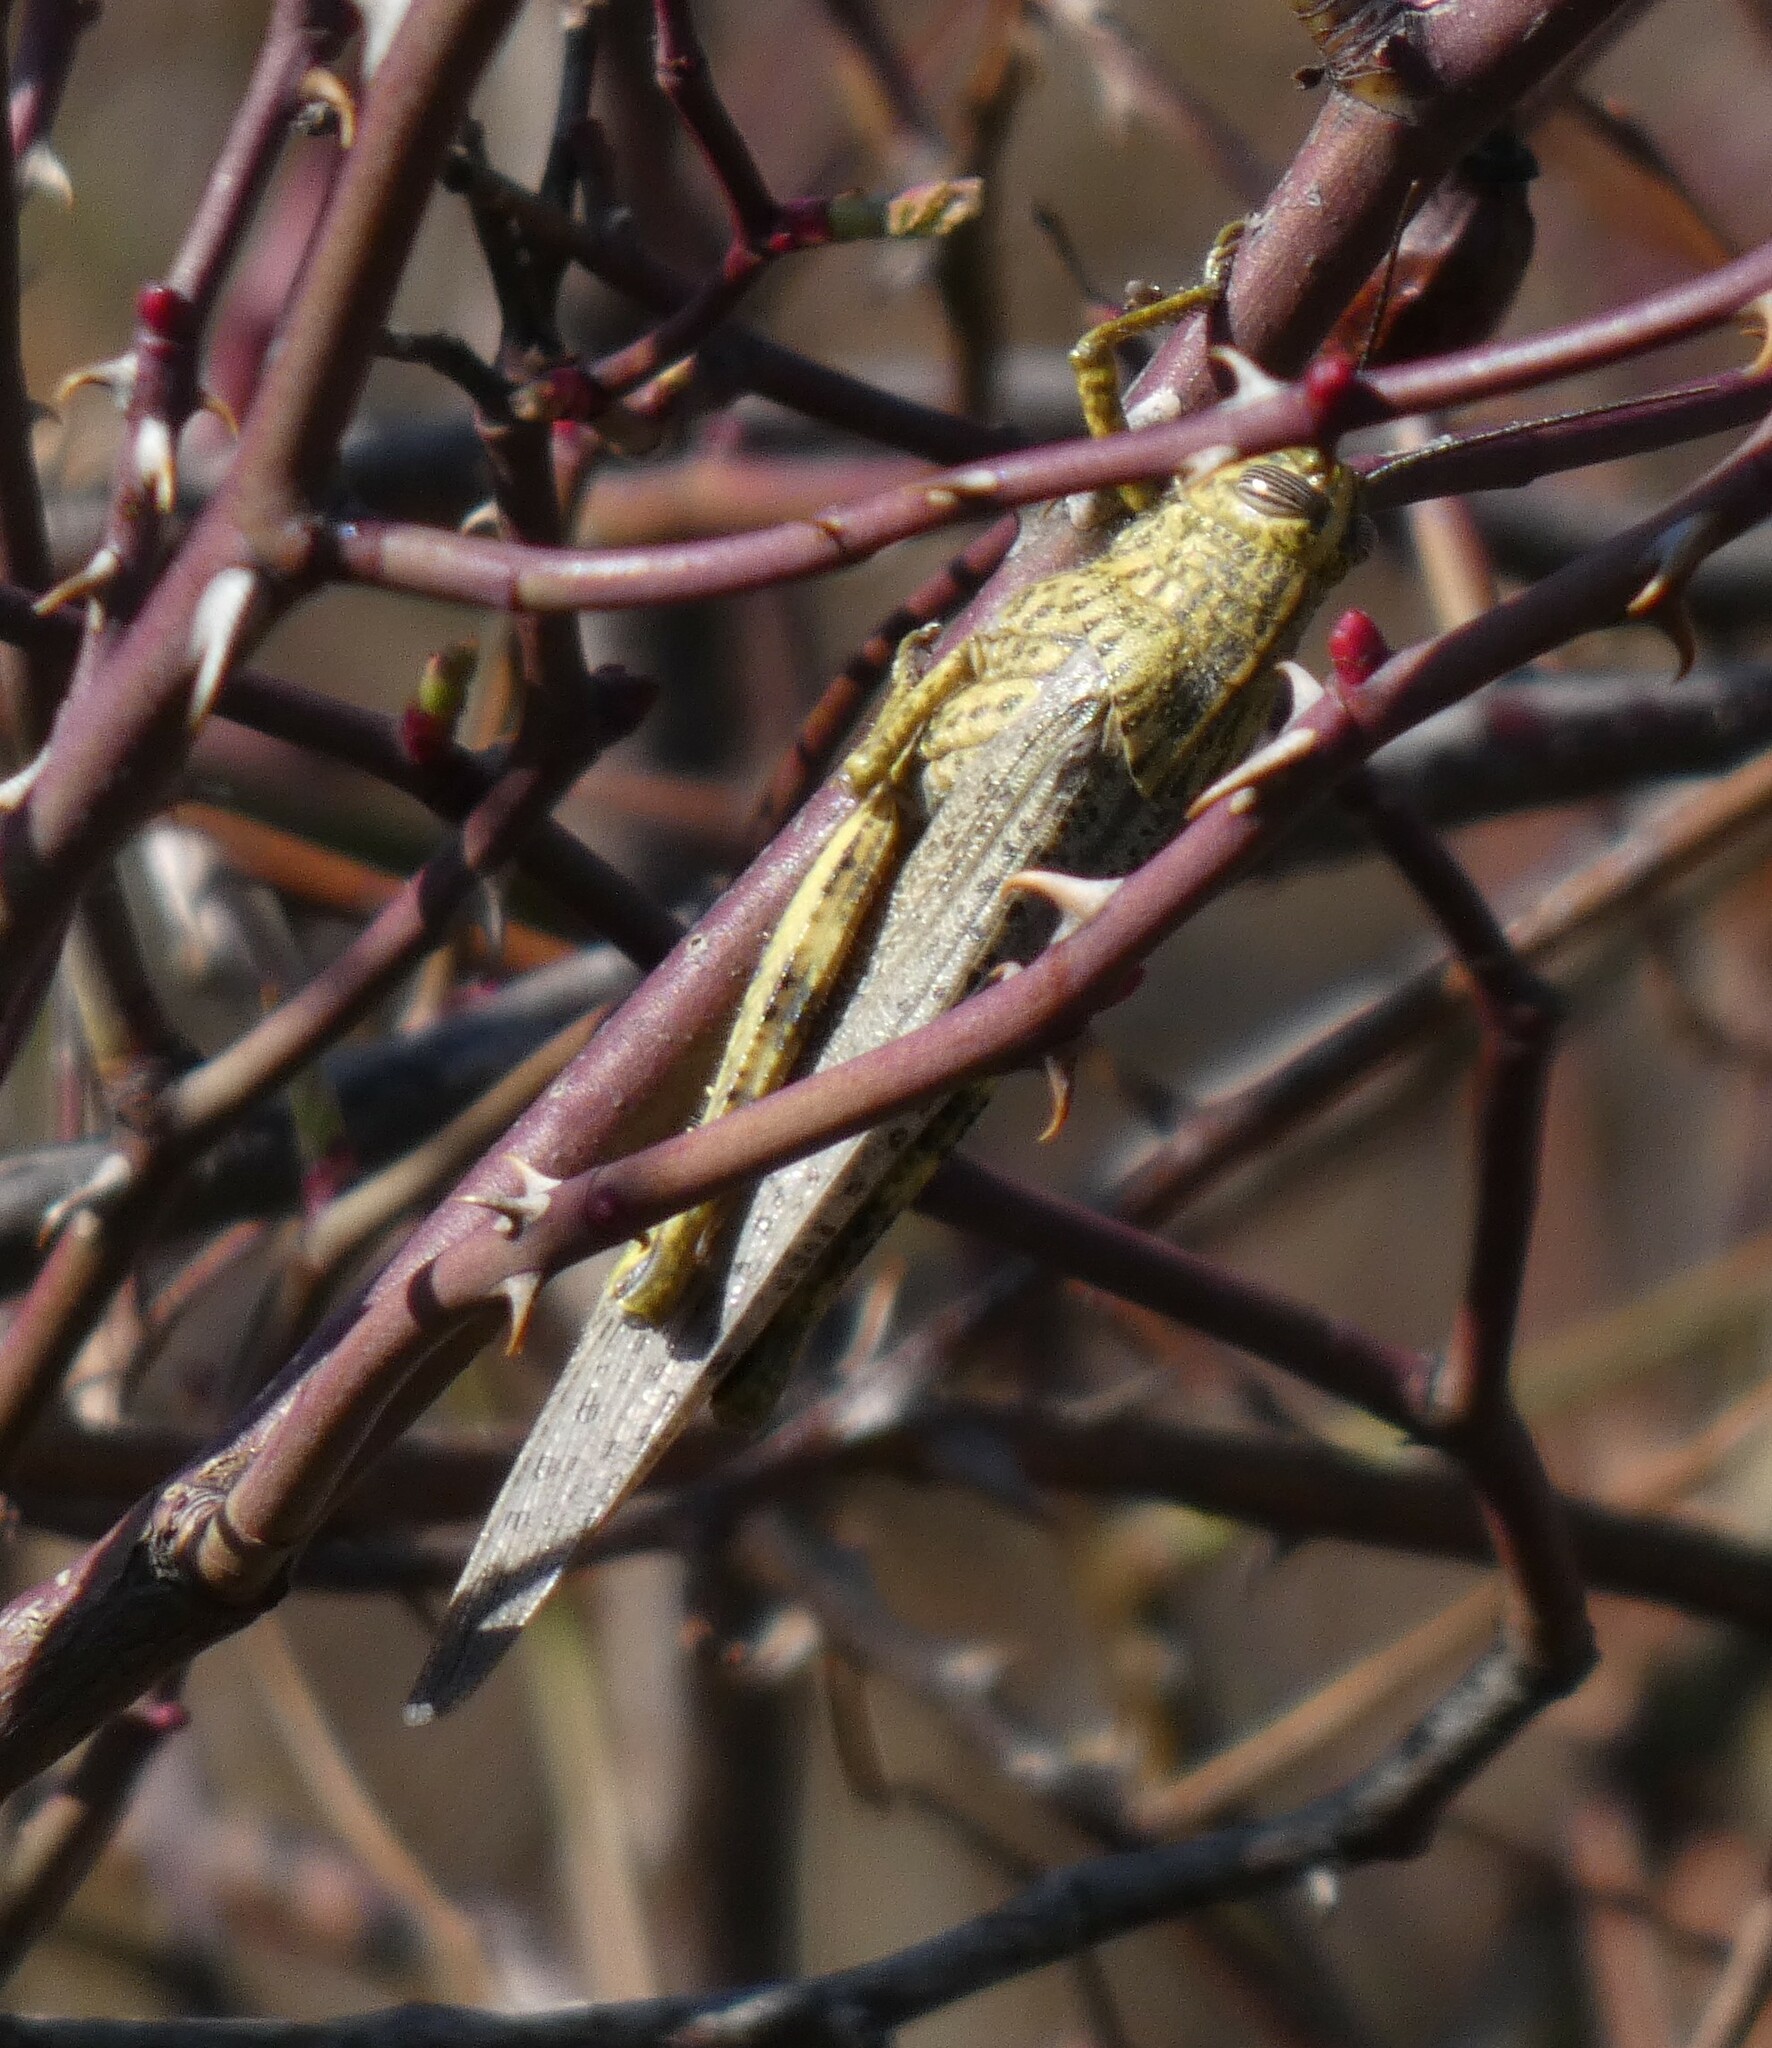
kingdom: Animalia
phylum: Arthropoda
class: Insecta
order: Orthoptera
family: Acrididae
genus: Anacridium
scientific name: Anacridium aegyptium
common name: Egyptian grasshopper
